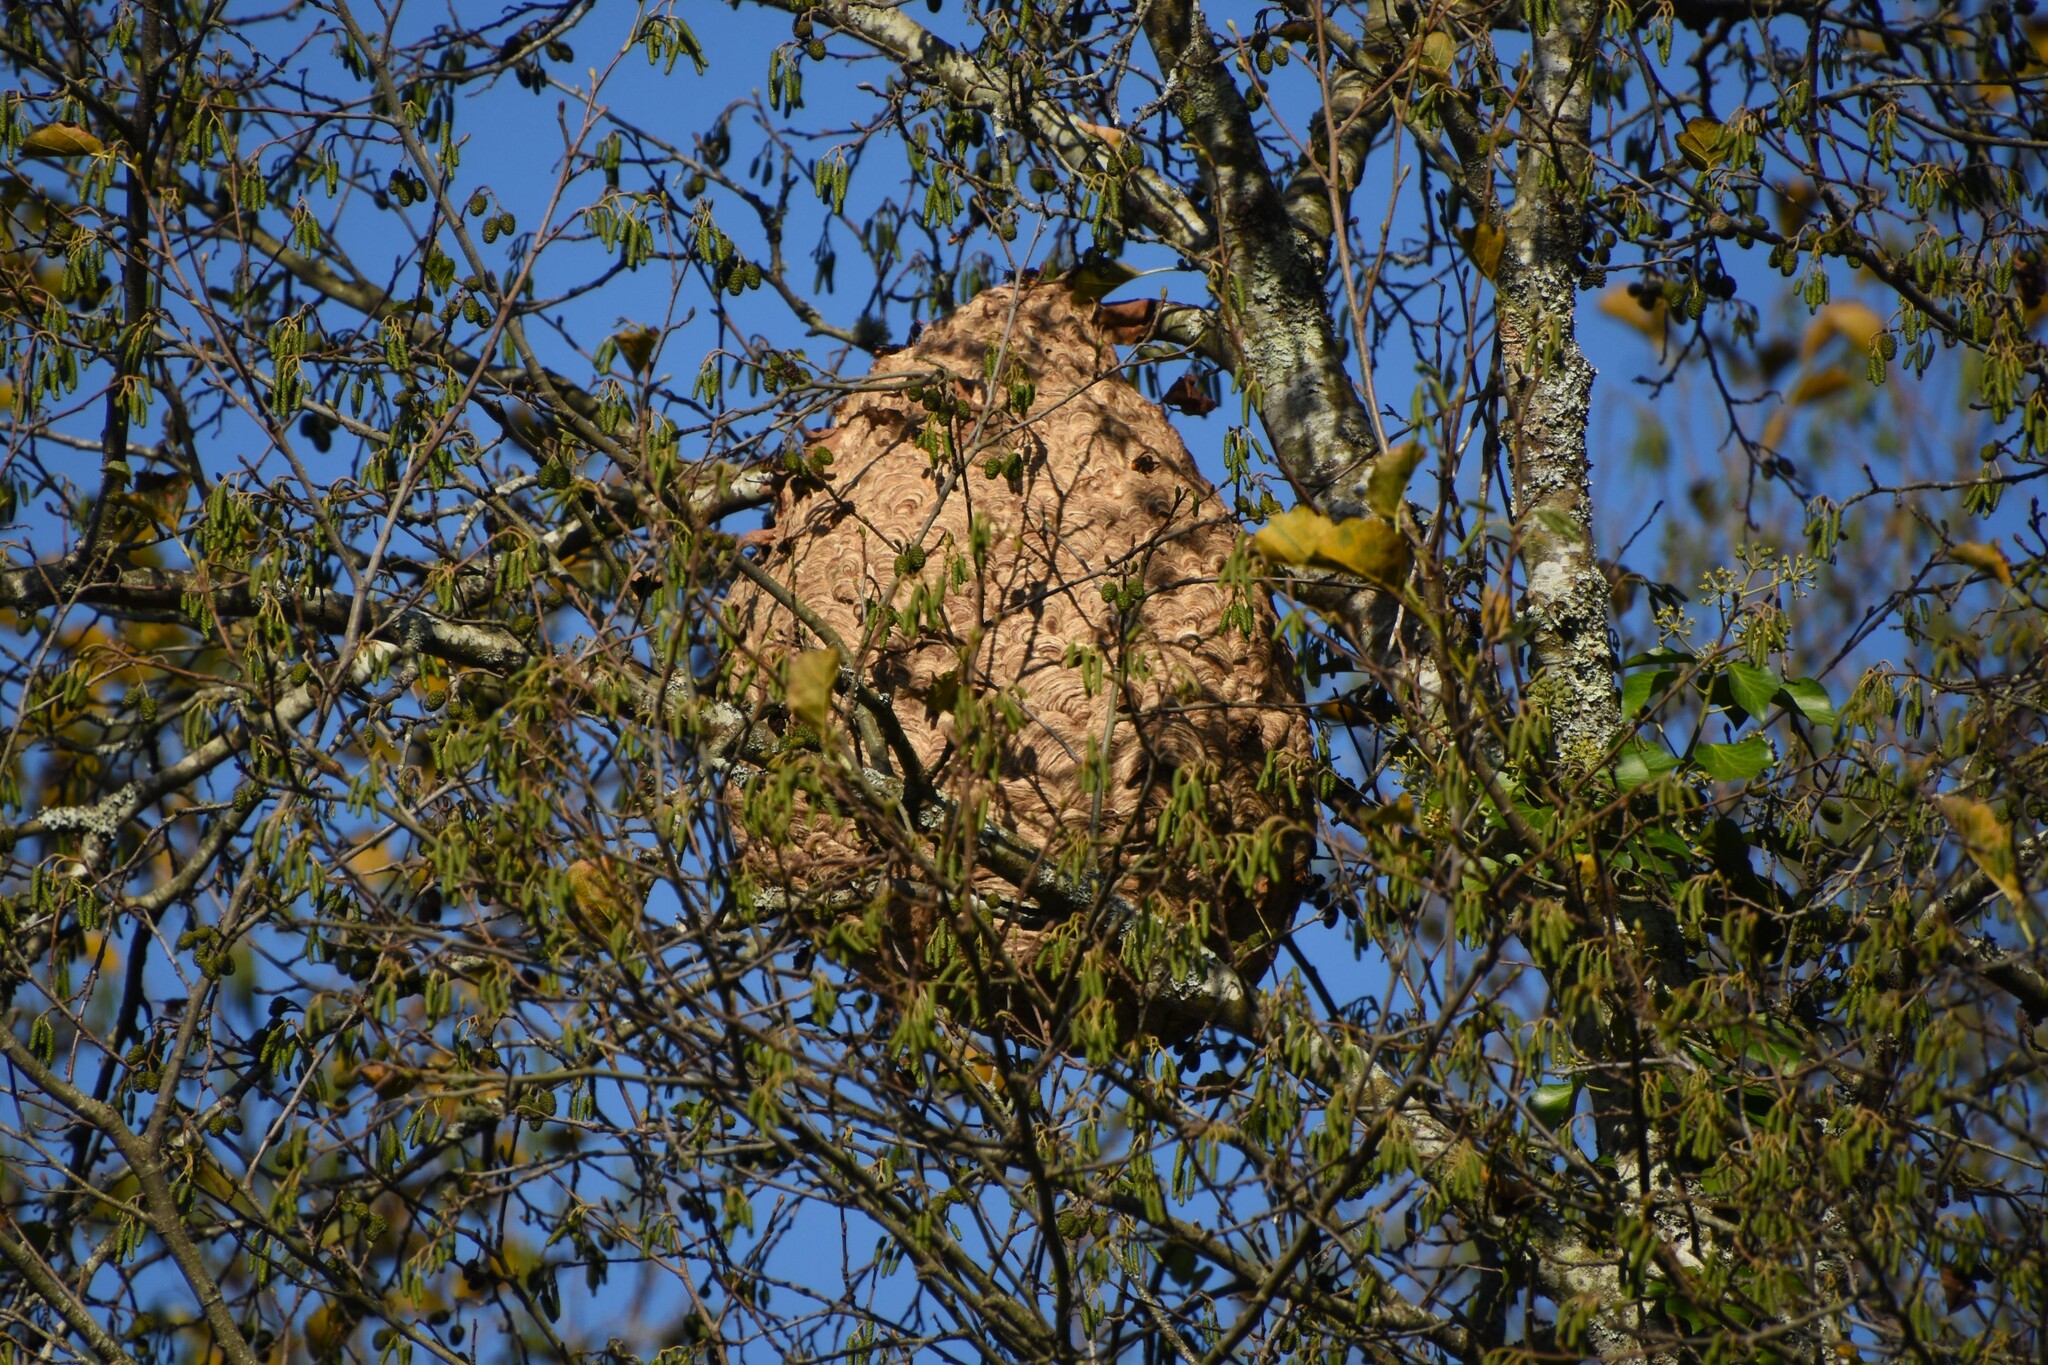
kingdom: Animalia
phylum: Arthropoda
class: Insecta
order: Hymenoptera
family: Vespidae
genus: Vespa
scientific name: Vespa velutina
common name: Asian hornet
